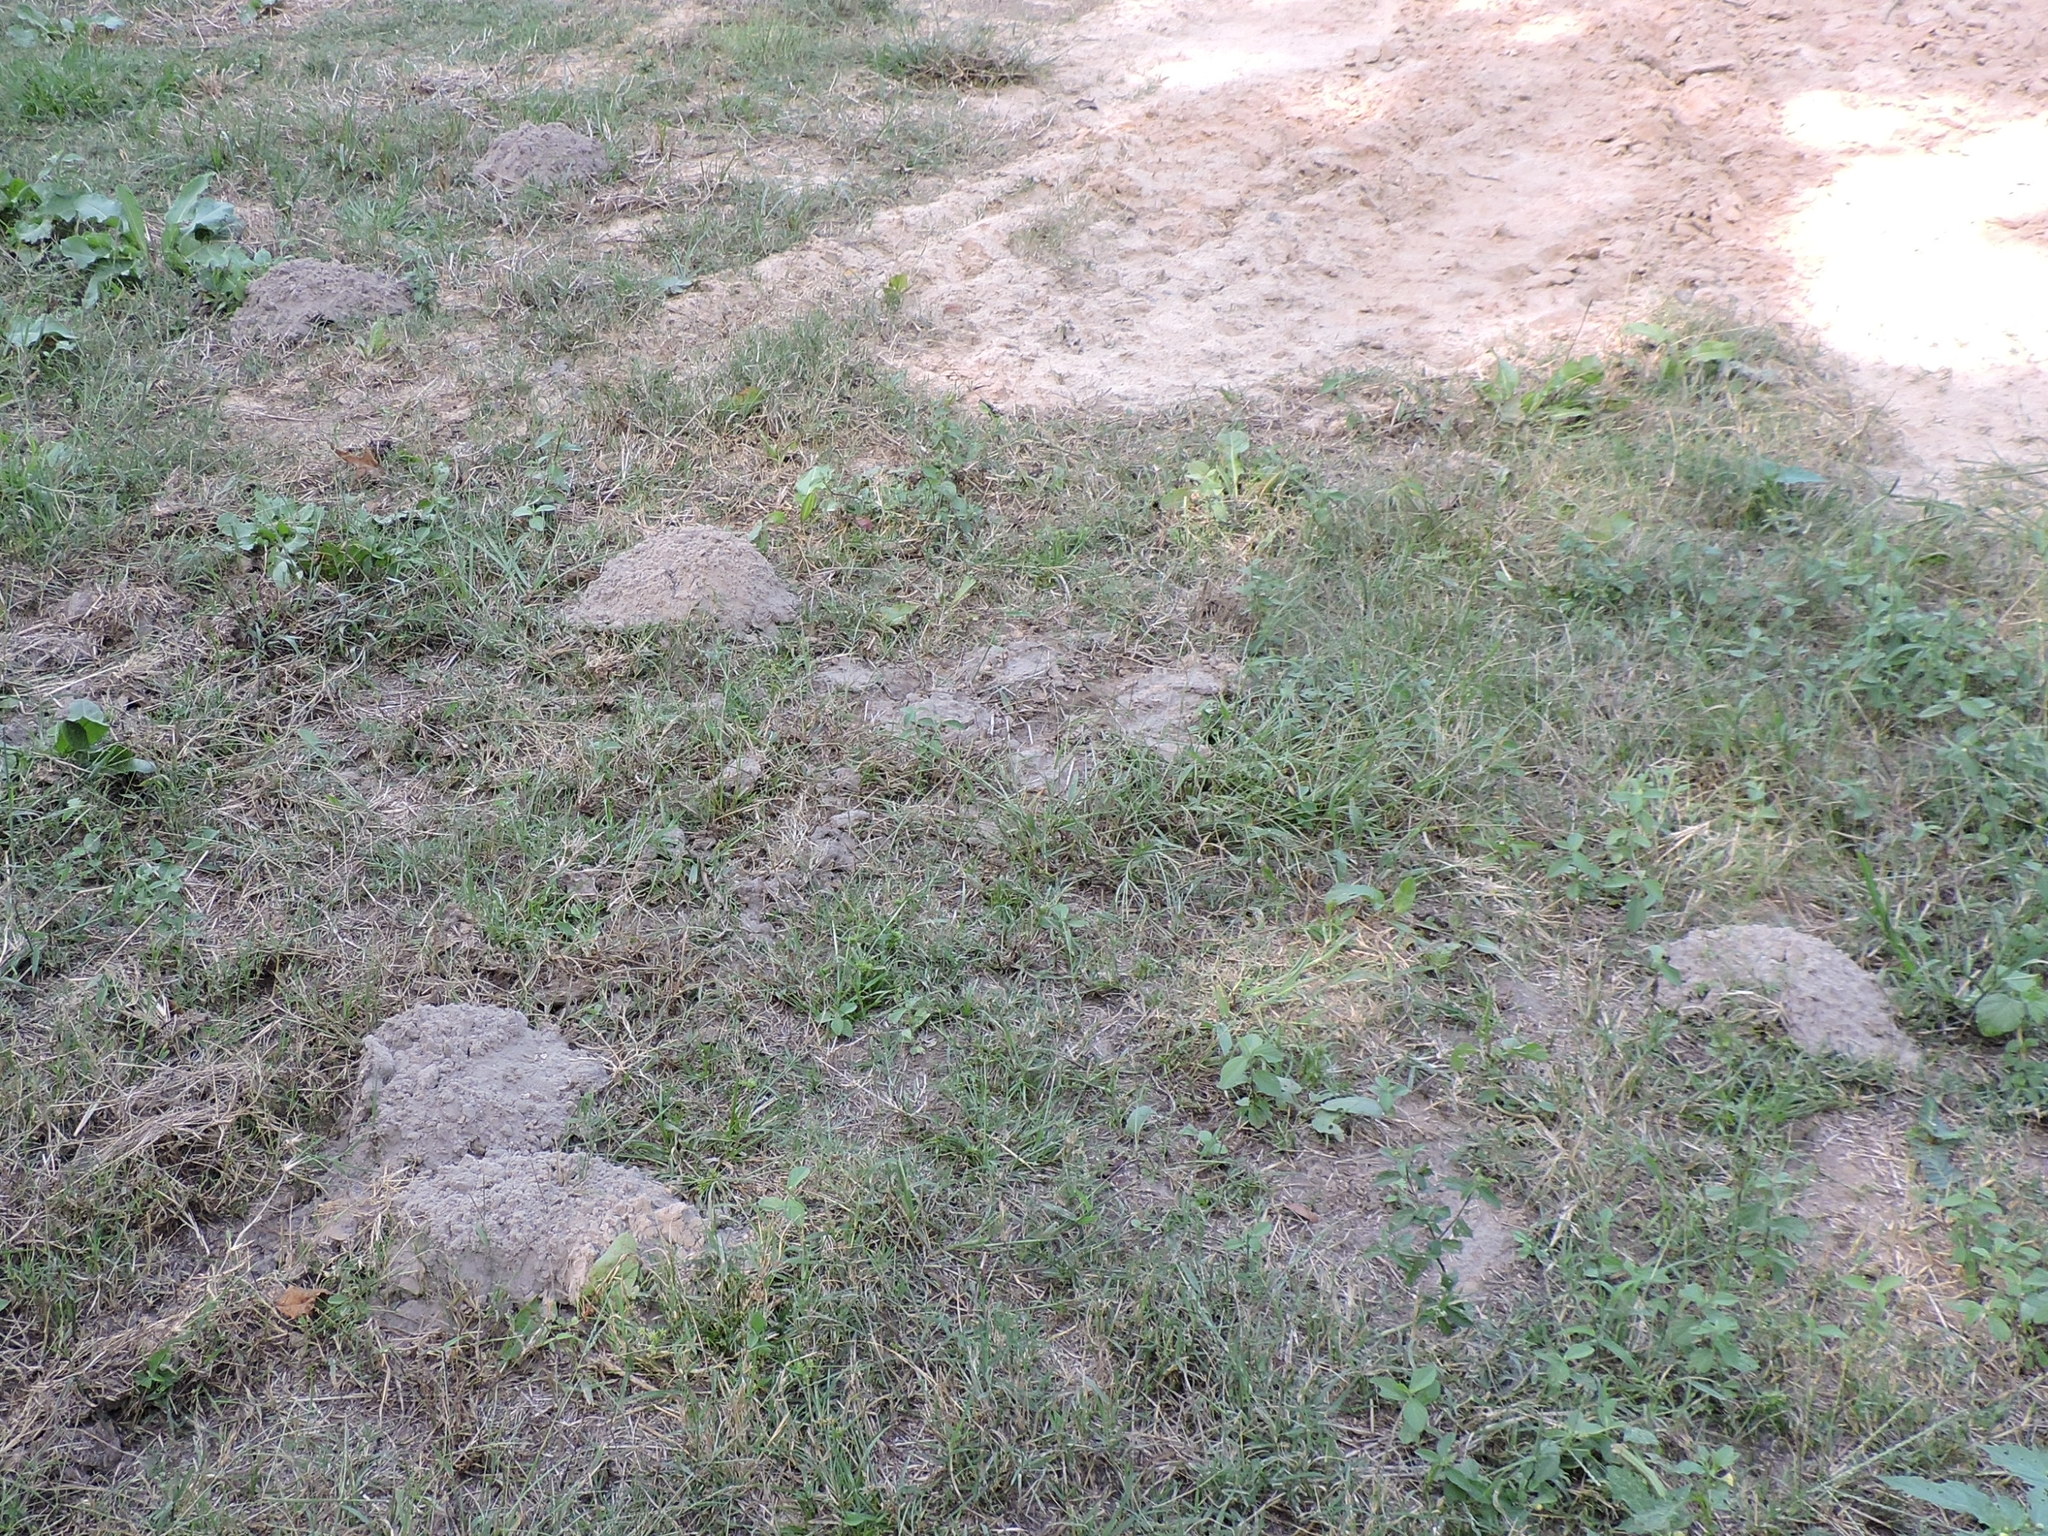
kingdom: Animalia
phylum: Chordata
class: Mammalia
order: Rodentia
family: Geomyidae
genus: Geomys
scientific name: Geomys breviceps
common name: Baird's pocket gopher
